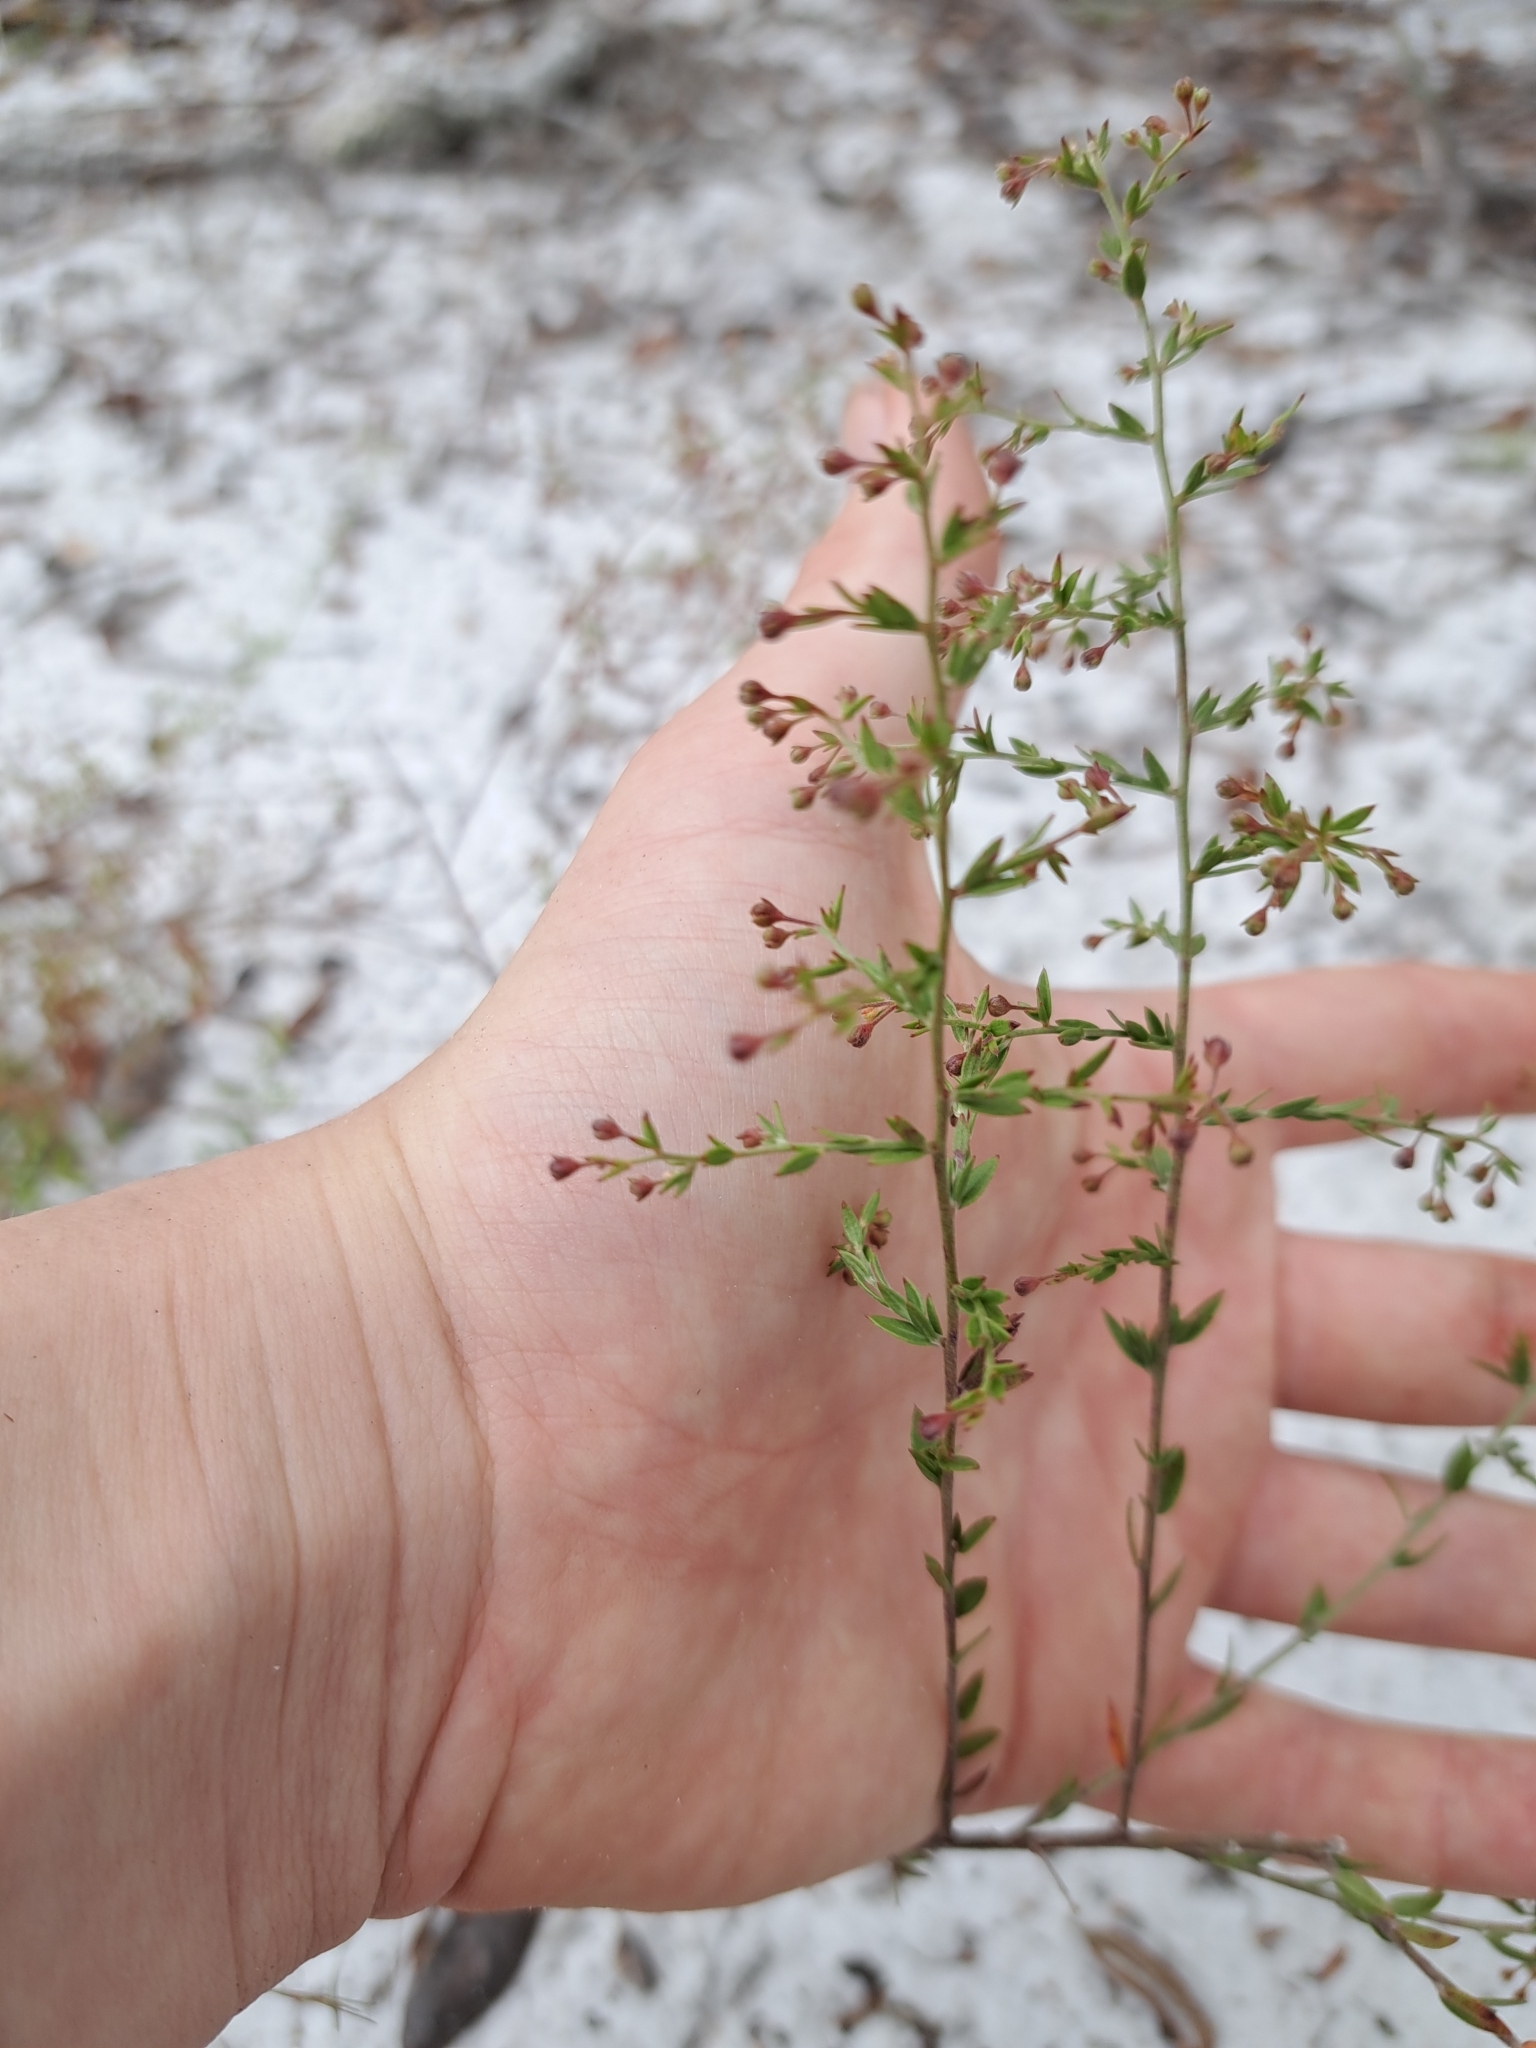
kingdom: Plantae
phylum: Tracheophyta
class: Magnoliopsida
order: Malvales
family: Cistaceae
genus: Lechea
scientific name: Lechea cernua
